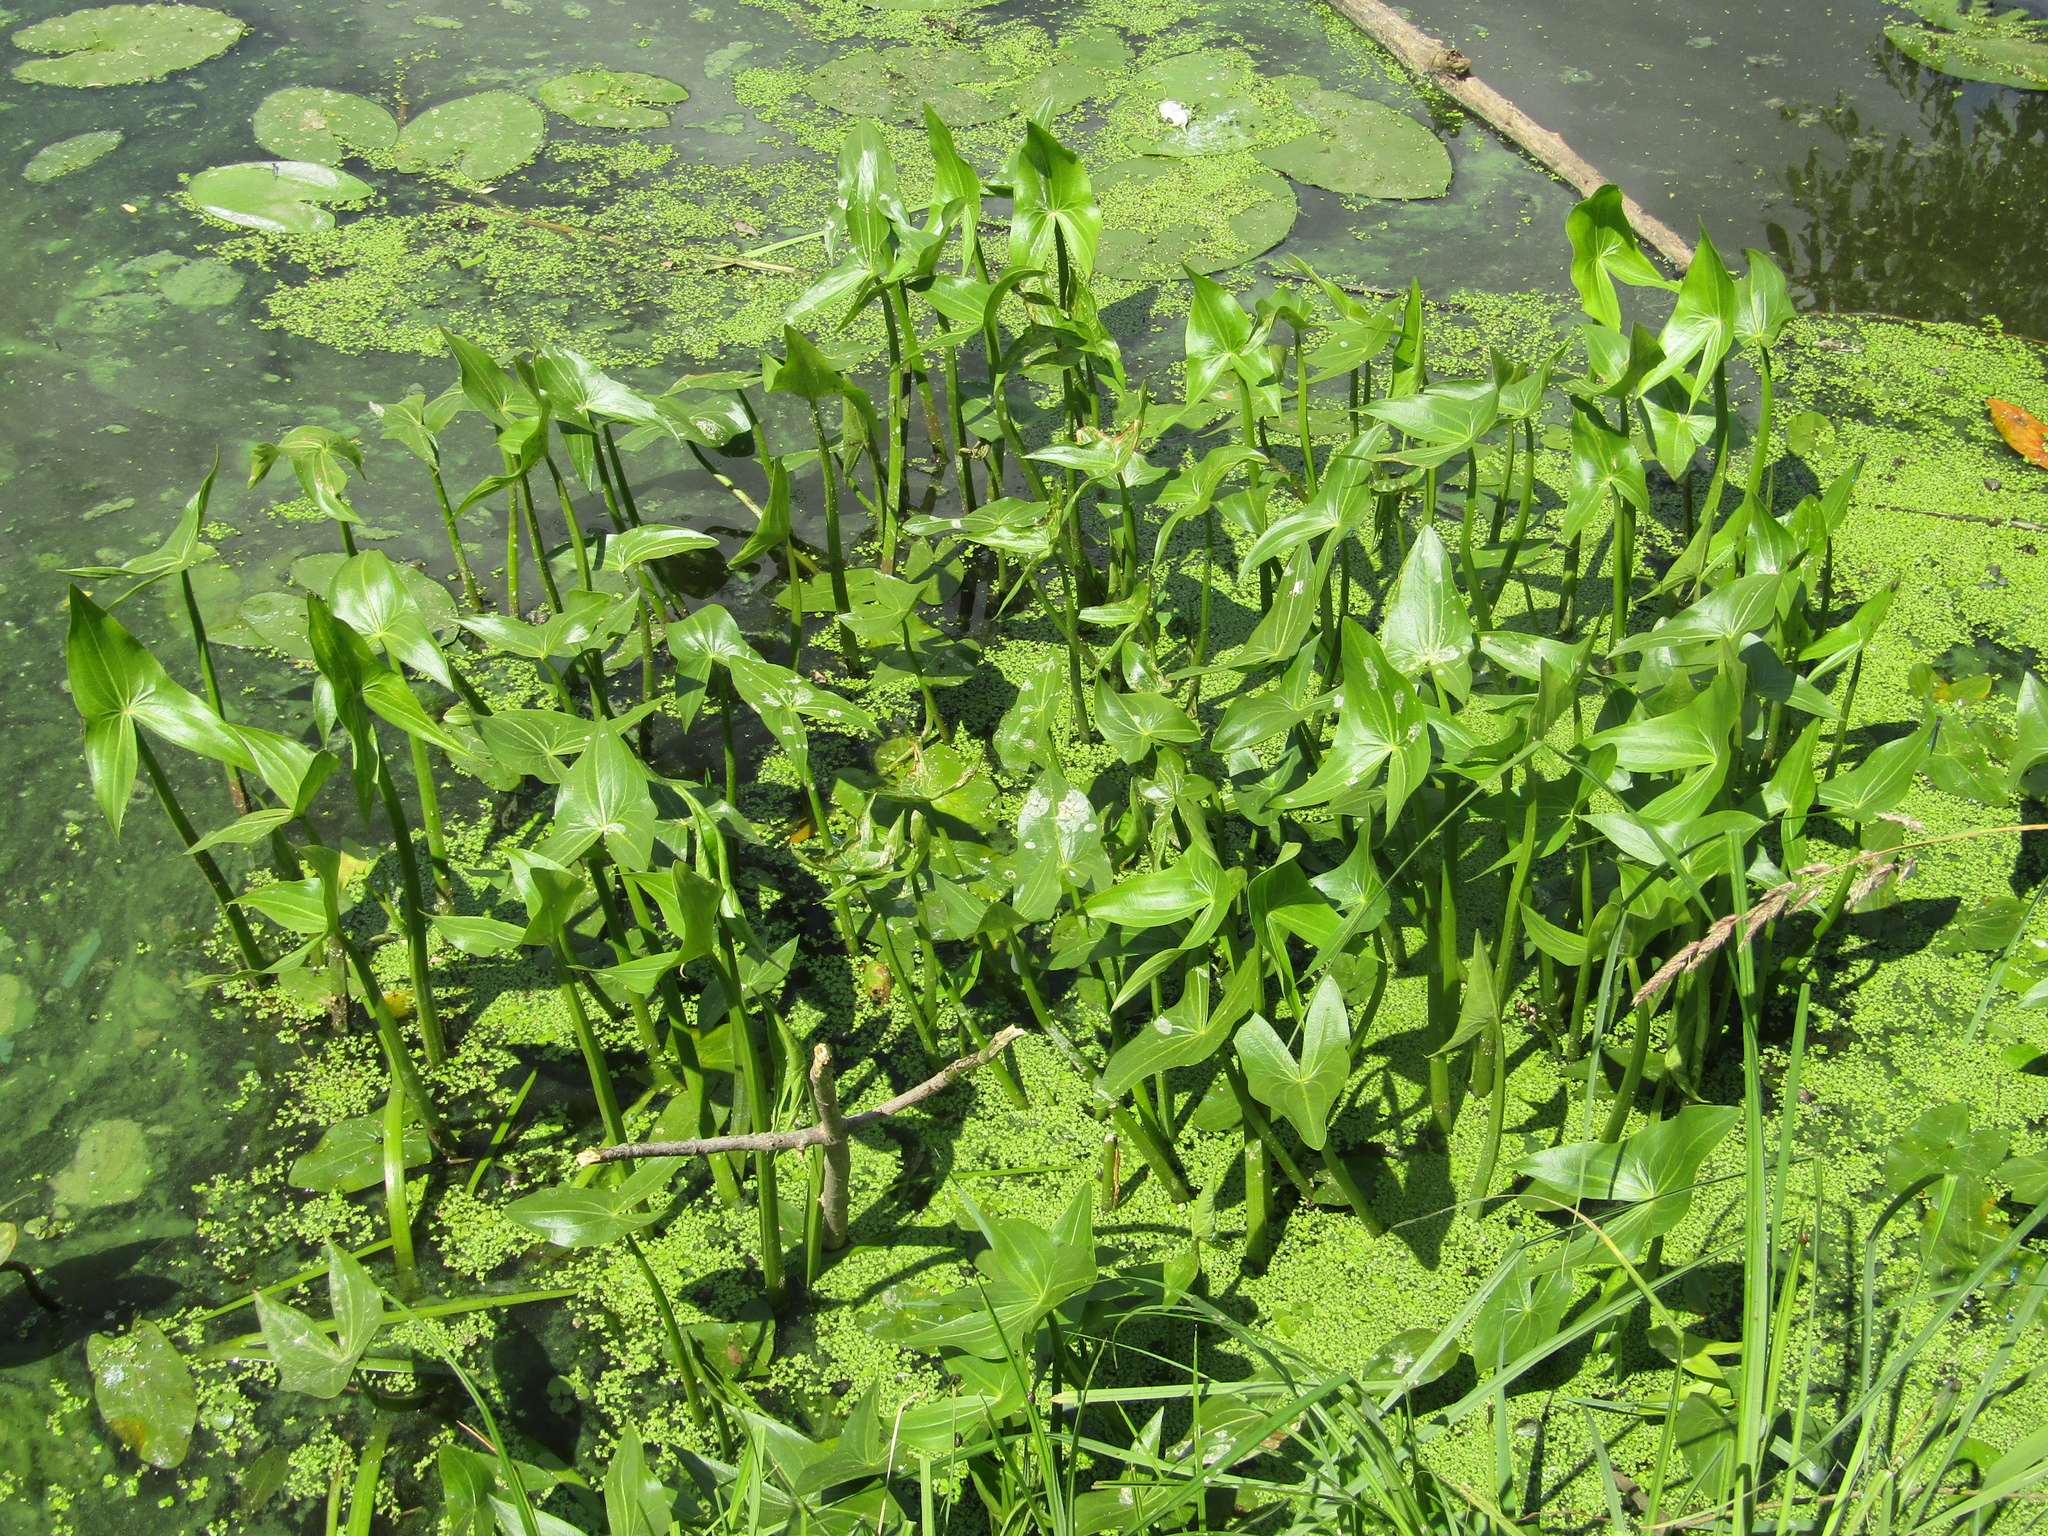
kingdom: Plantae
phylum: Tracheophyta
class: Liliopsida
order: Alismatales
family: Alismataceae
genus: Sagittaria
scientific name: Sagittaria sagittifolia
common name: Arrowhead
